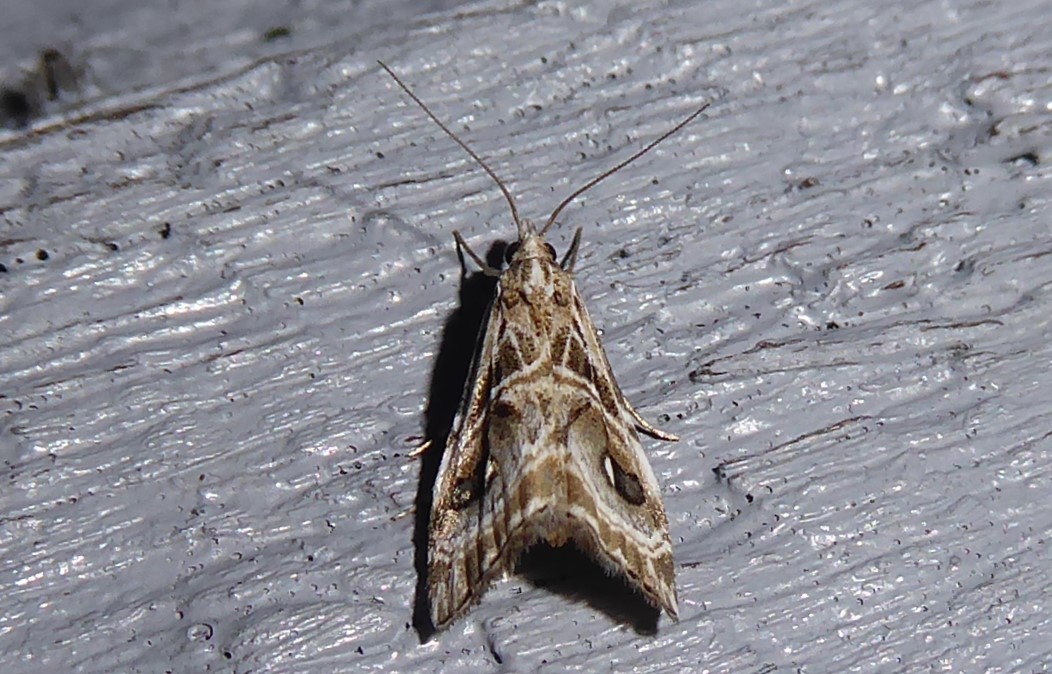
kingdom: Animalia
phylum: Arthropoda
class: Insecta
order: Lepidoptera
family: Crambidae
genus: Gadira
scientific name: Gadira acerella
